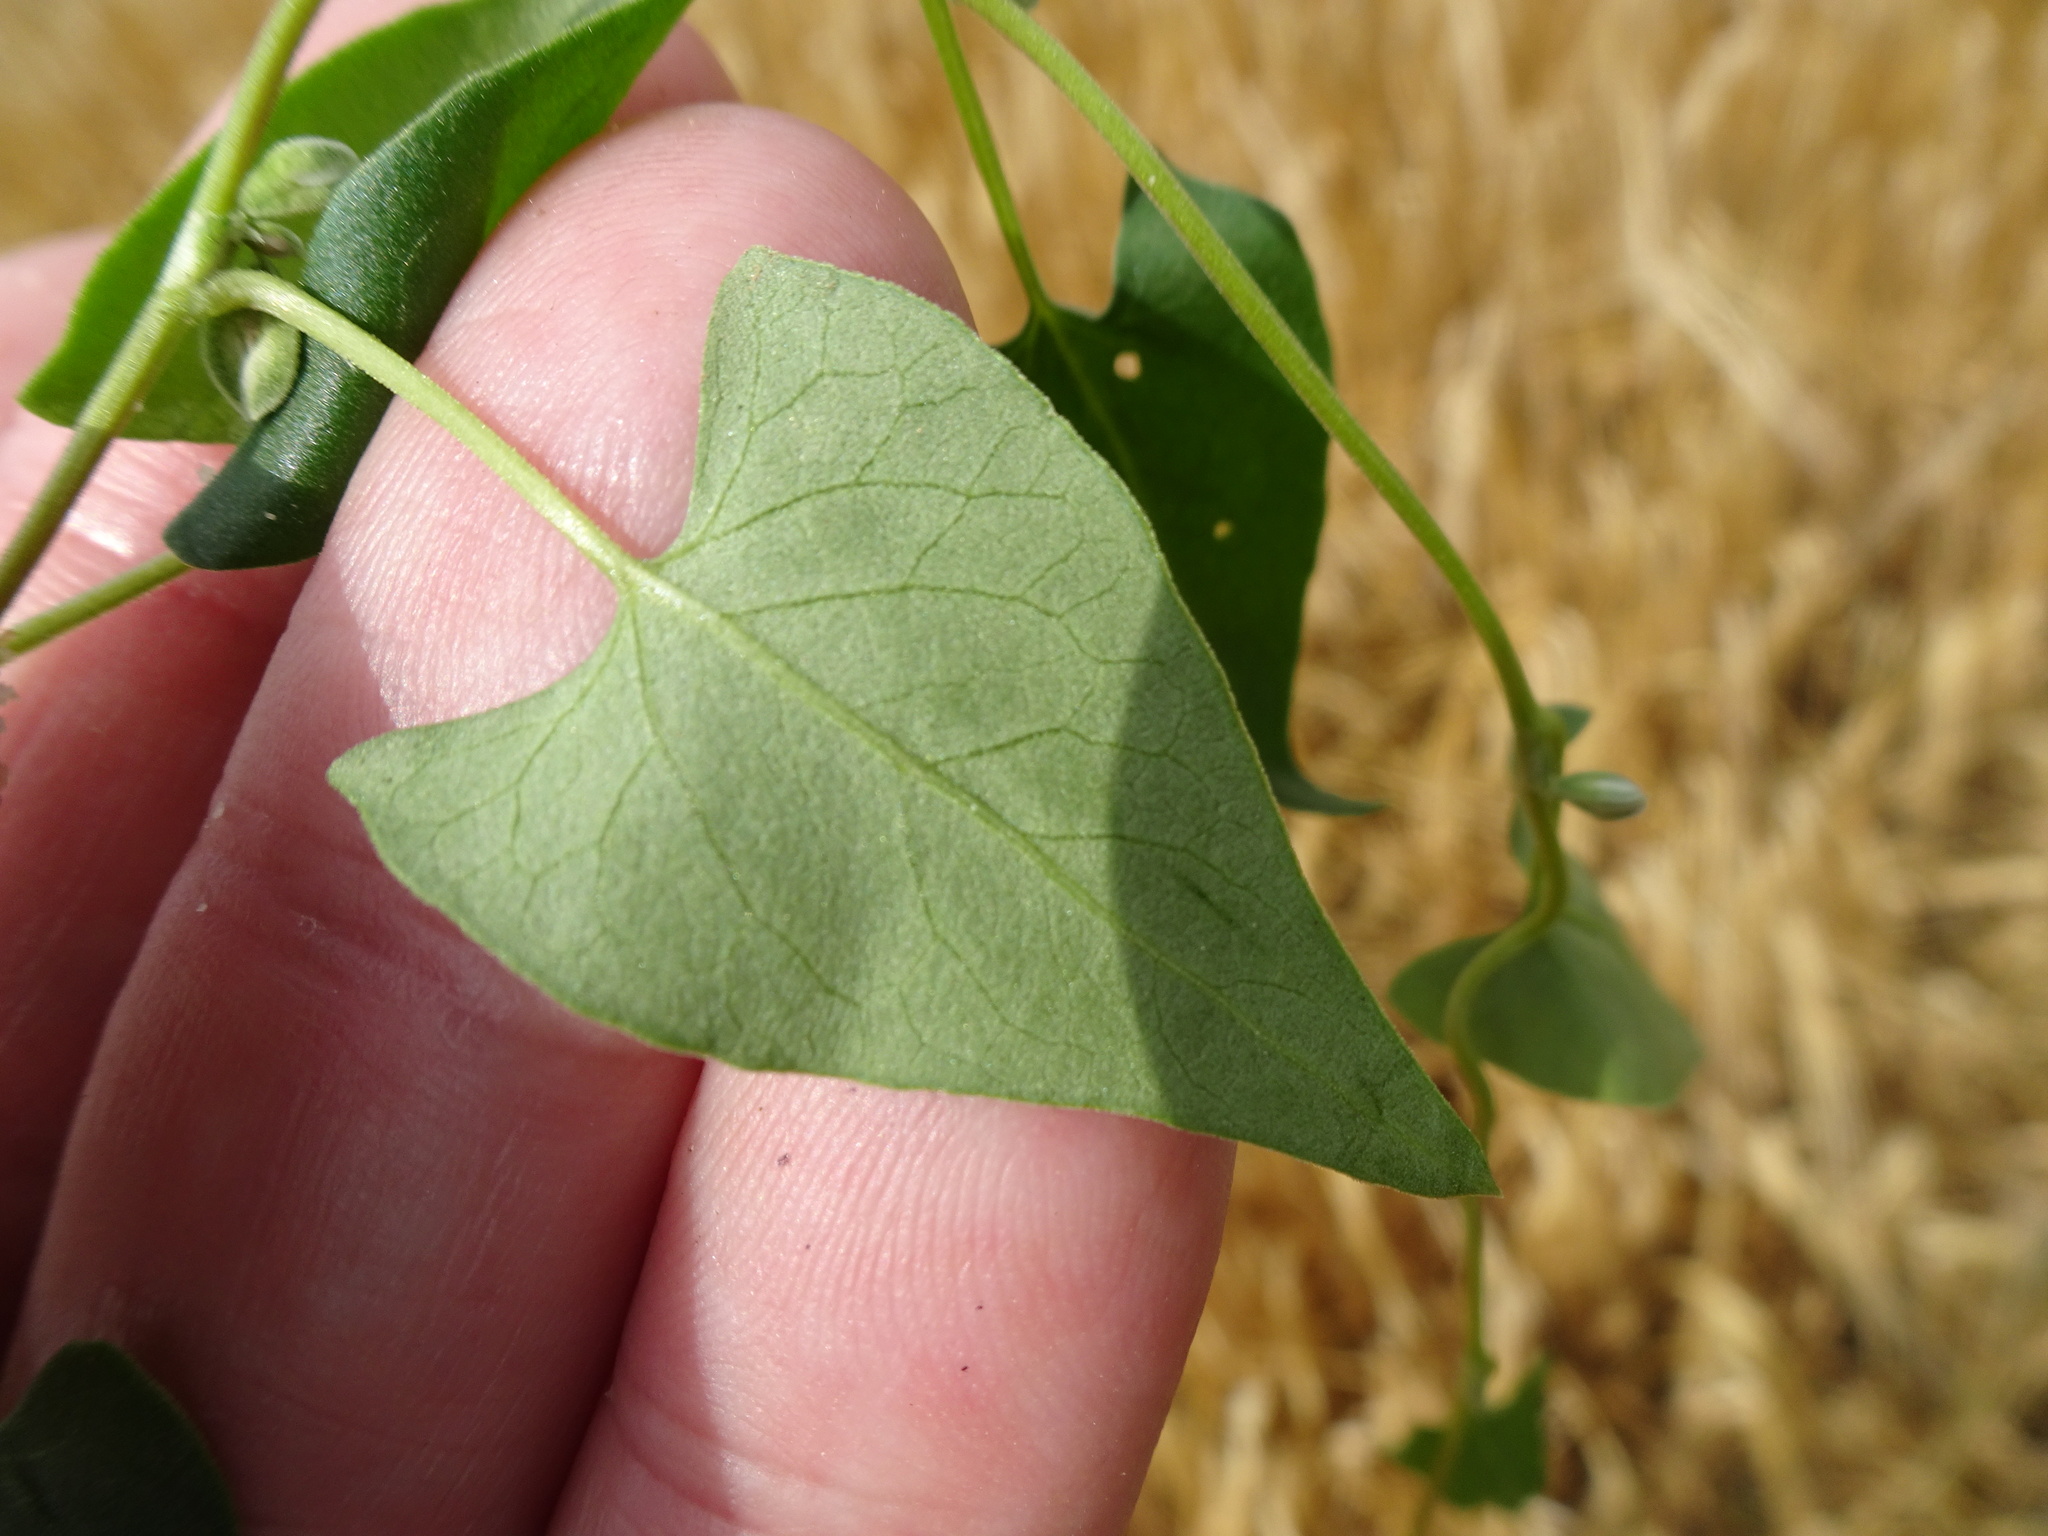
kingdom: Plantae
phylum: Tracheophyta
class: Magnoliopsida
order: Caryophyllales
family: Polygonaceae
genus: Fallopia
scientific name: Fallopia convolvulus
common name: Black bindweed
